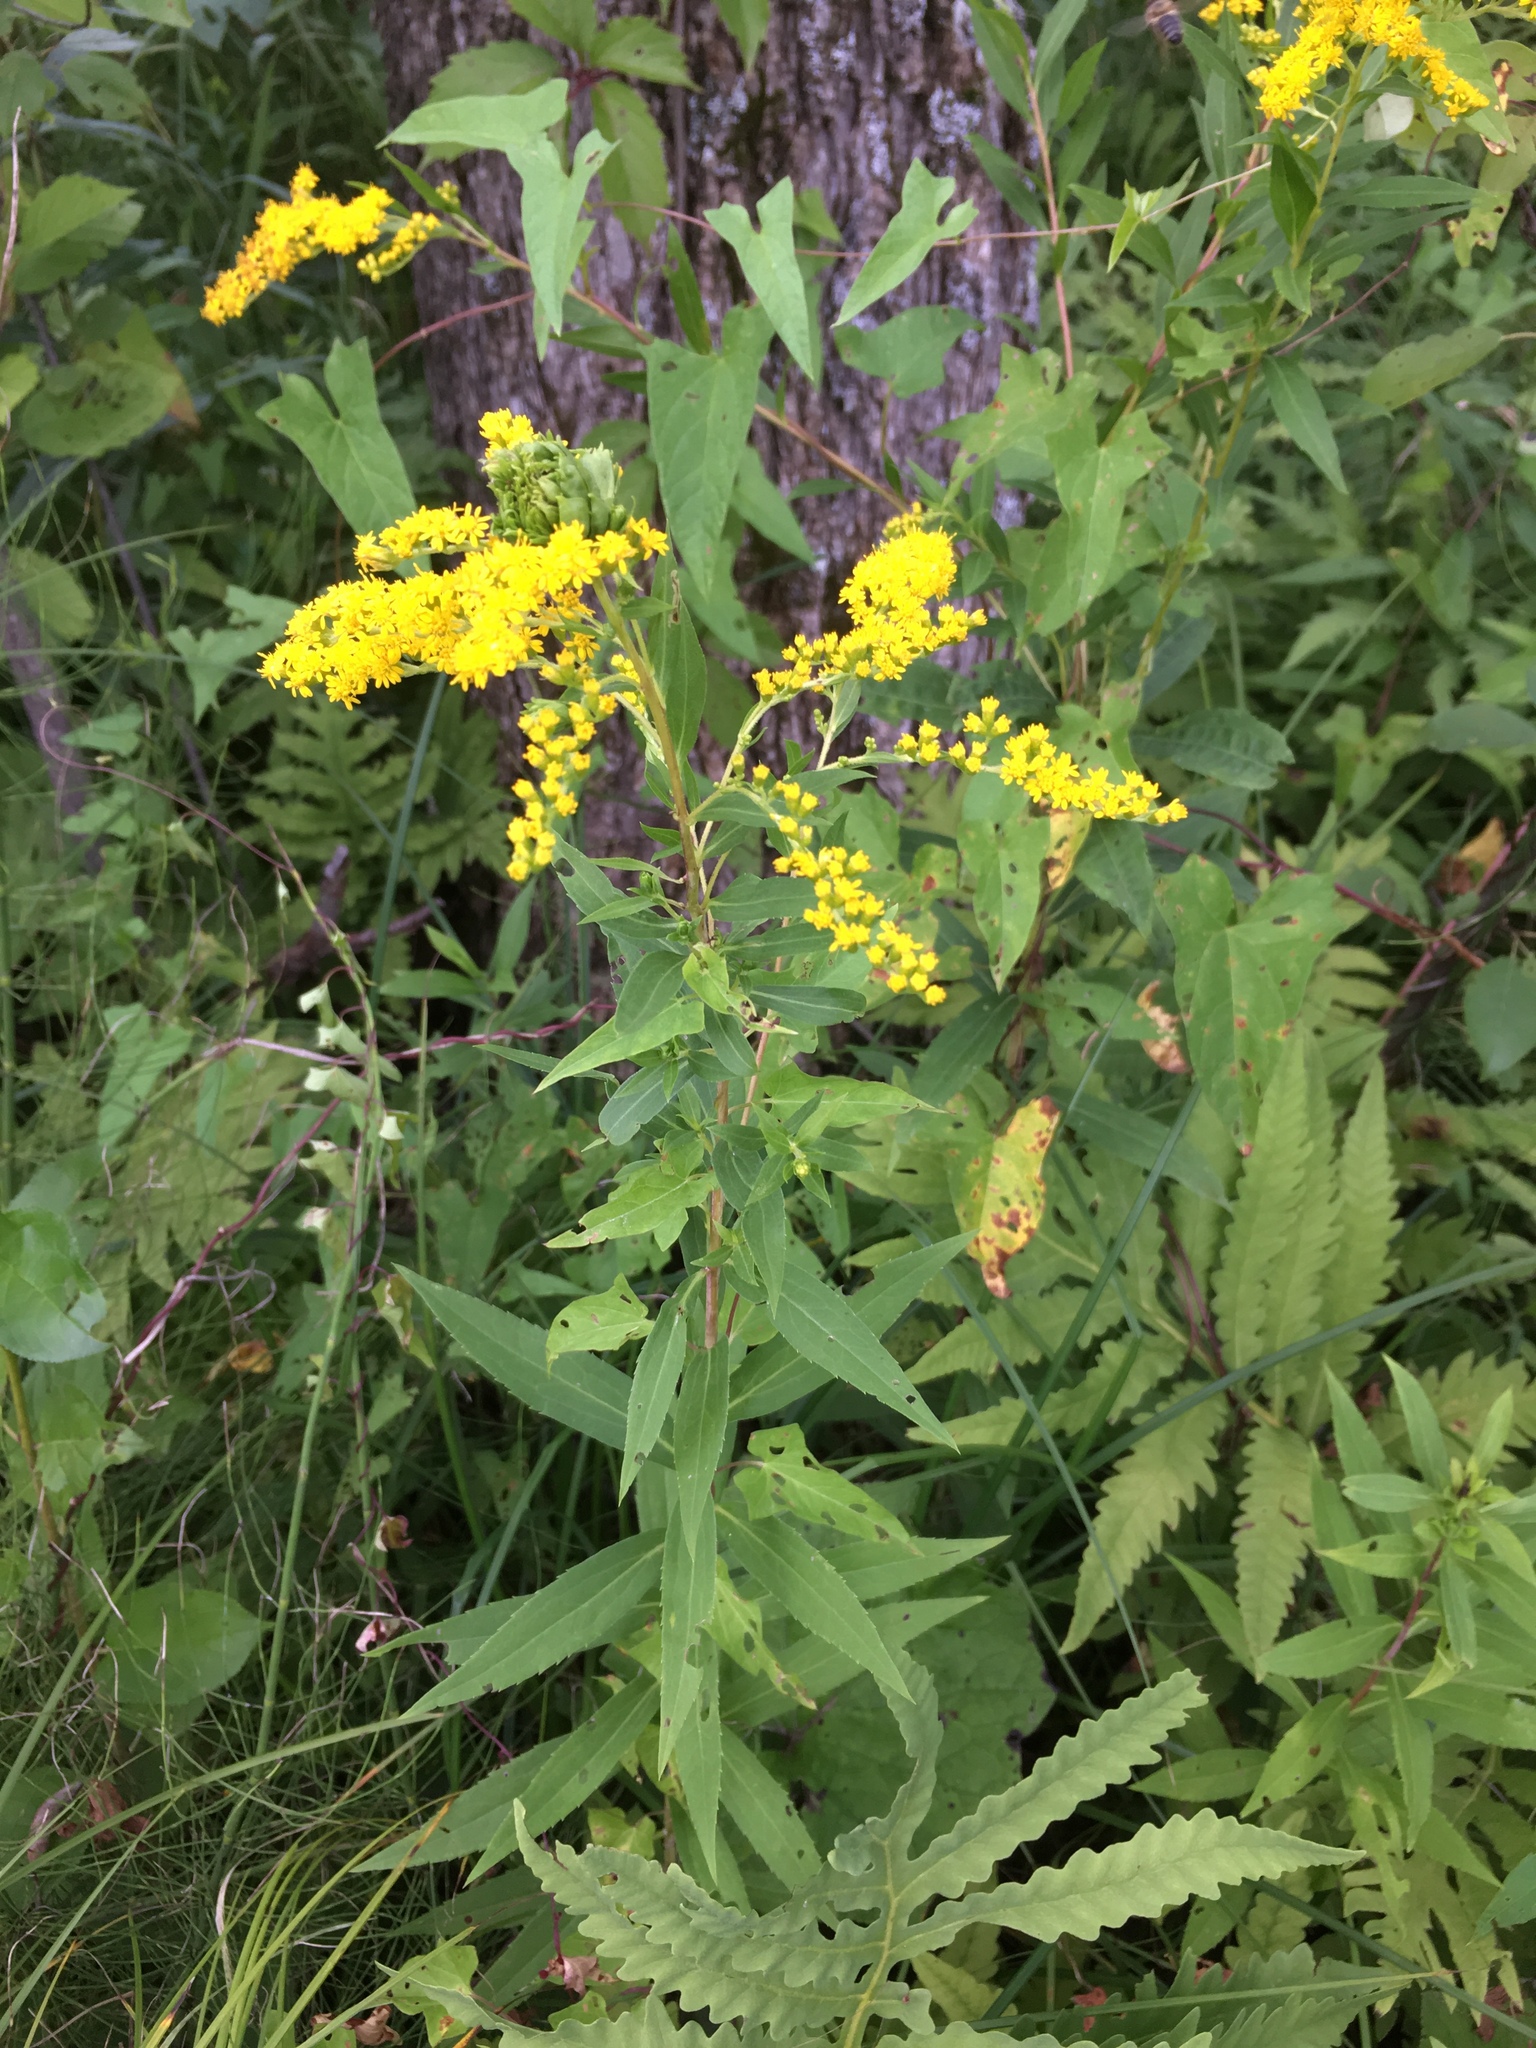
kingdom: Plantae
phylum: Tracheophyta
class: Magnoliopsida
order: Asterales
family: Asteraceae
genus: Solidago
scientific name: Solidago gigantea
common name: Giant goldenrod
